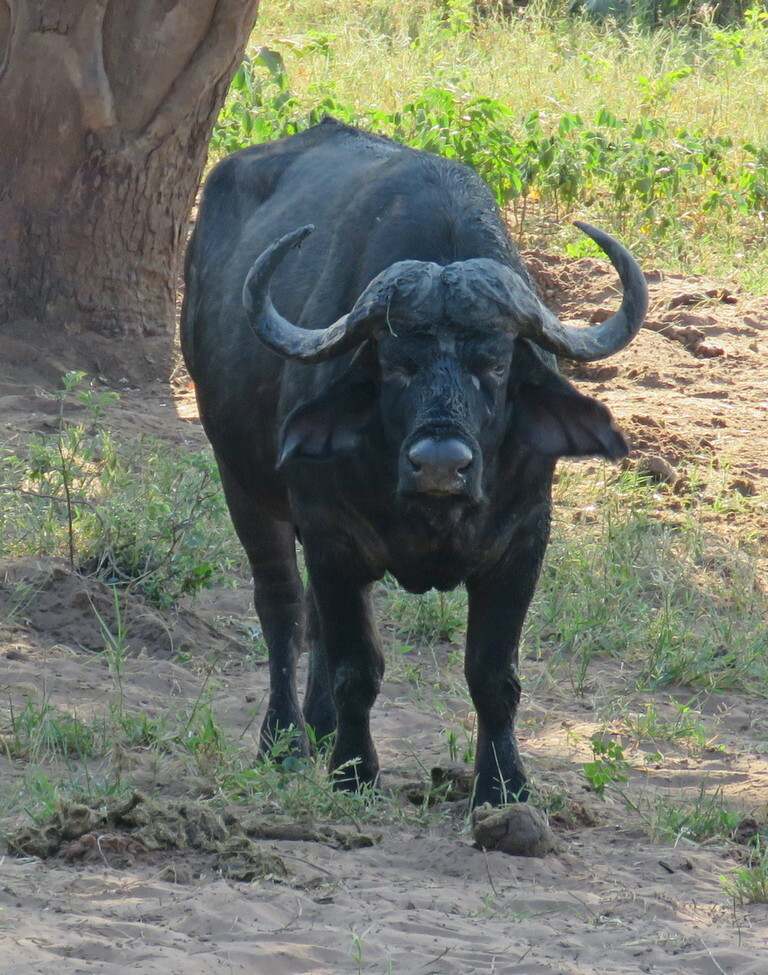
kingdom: Animalia
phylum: Chordata
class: Mammalia
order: Artiodactyla
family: Bovidae
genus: Syncerus
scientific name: Syncerus caffer
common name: African buffalo
